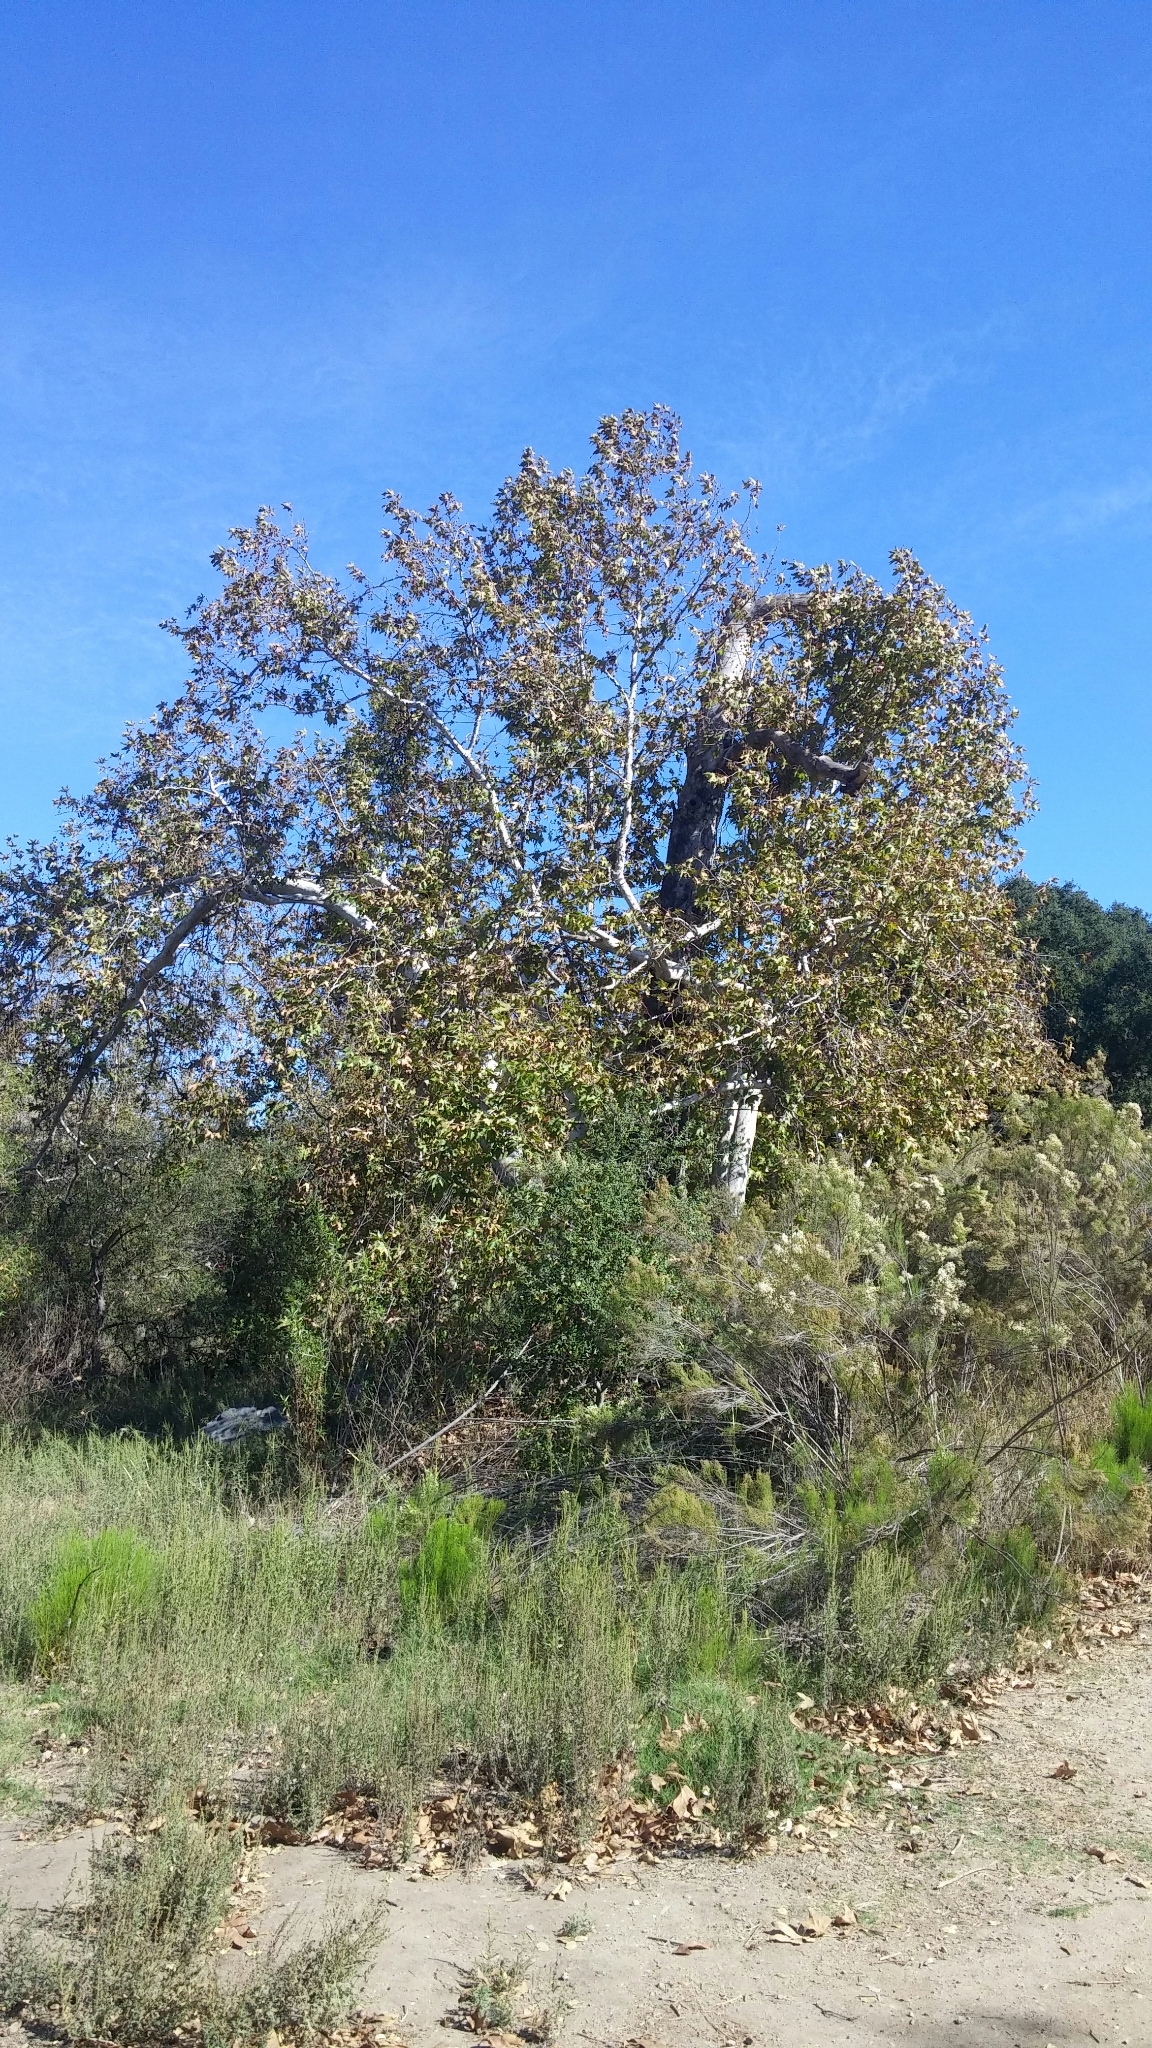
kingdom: Plantae
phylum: Tracheophyta
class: Magnoliopsida
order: Proteales
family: Platanaceae
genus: Platanus
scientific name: Platanus racemosa
